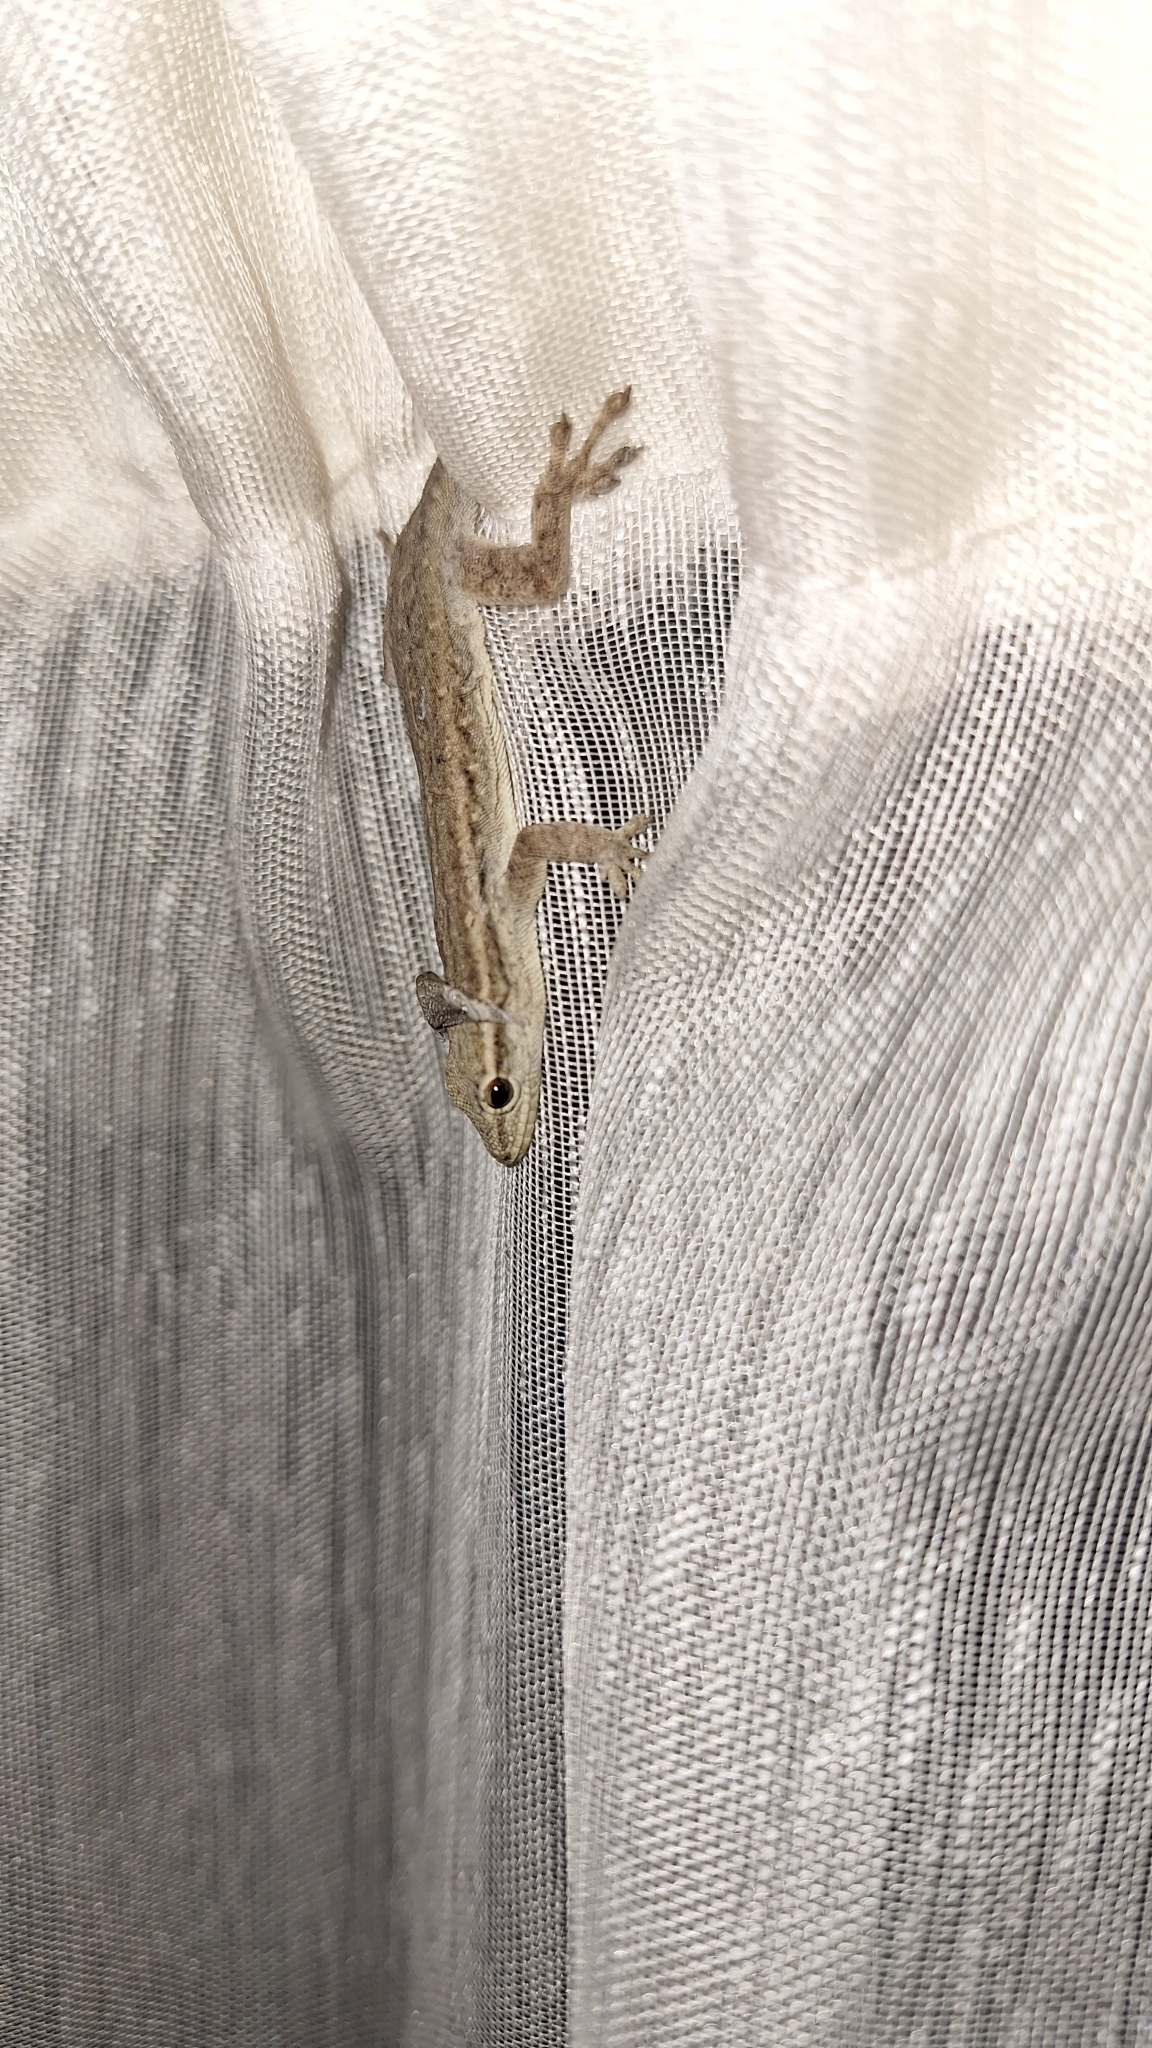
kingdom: Animalia
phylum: Chordata
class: Squamata
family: Gekkonidae
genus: Lygodactylus
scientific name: Lygodactylus capensis
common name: Cape dwarf gecko
